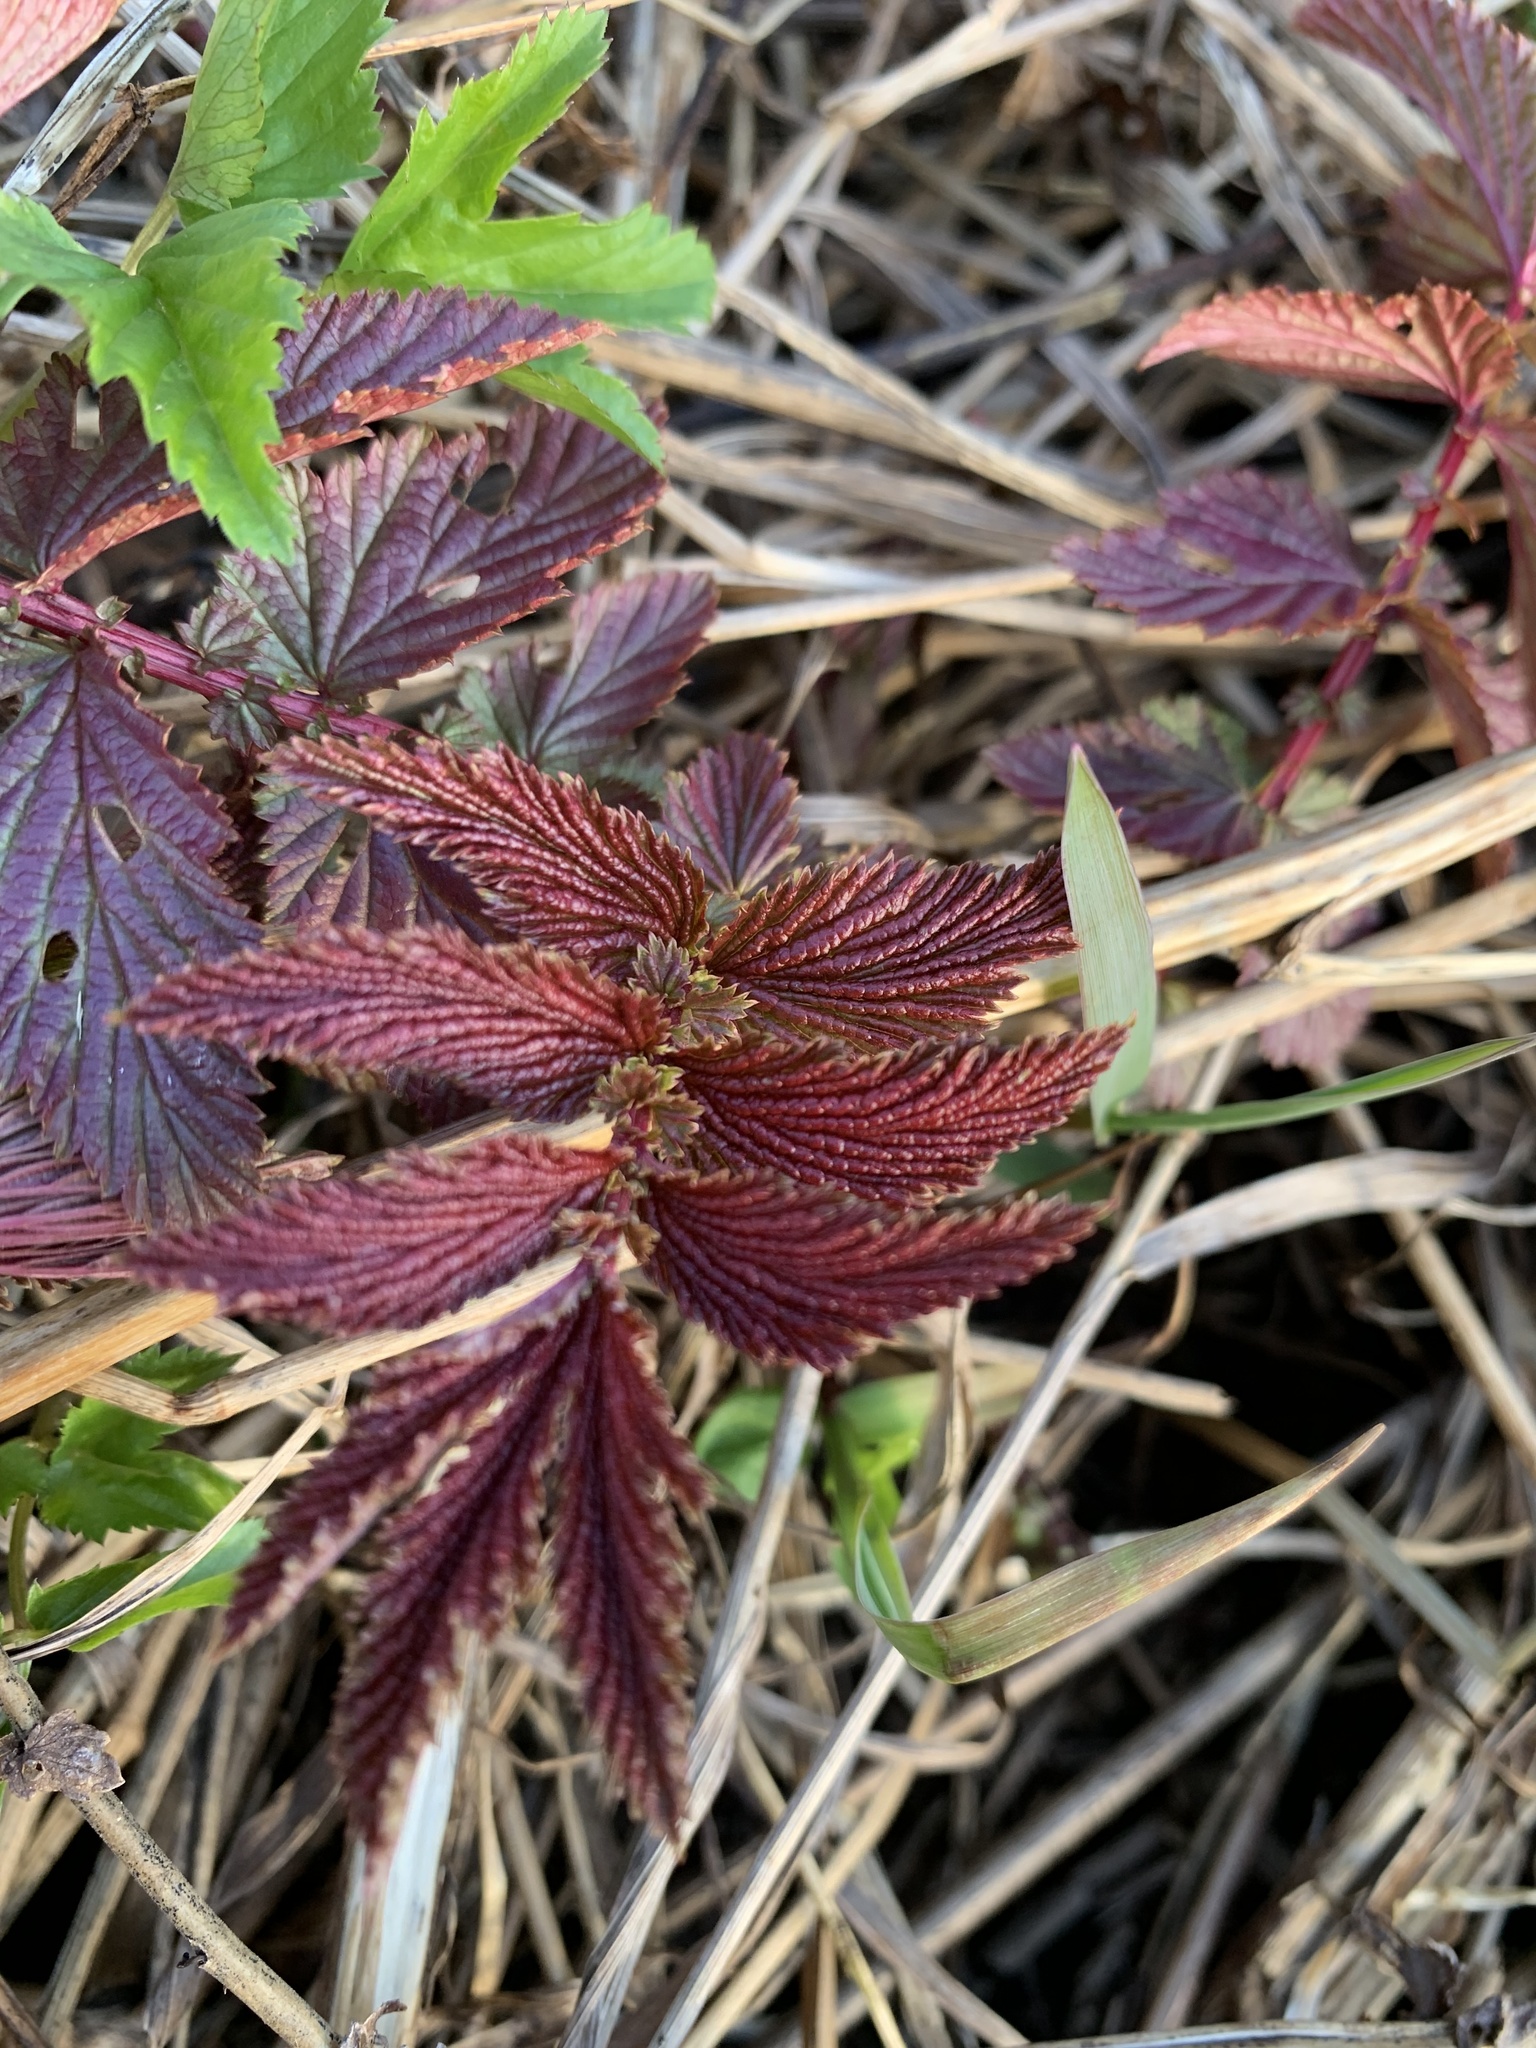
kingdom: Plantae
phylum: Tracheophyta
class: Magnoliopsida
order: Rosales
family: Rosaceae
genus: Filipendula
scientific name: Filipendula ulmaria
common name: Meadowsweet
